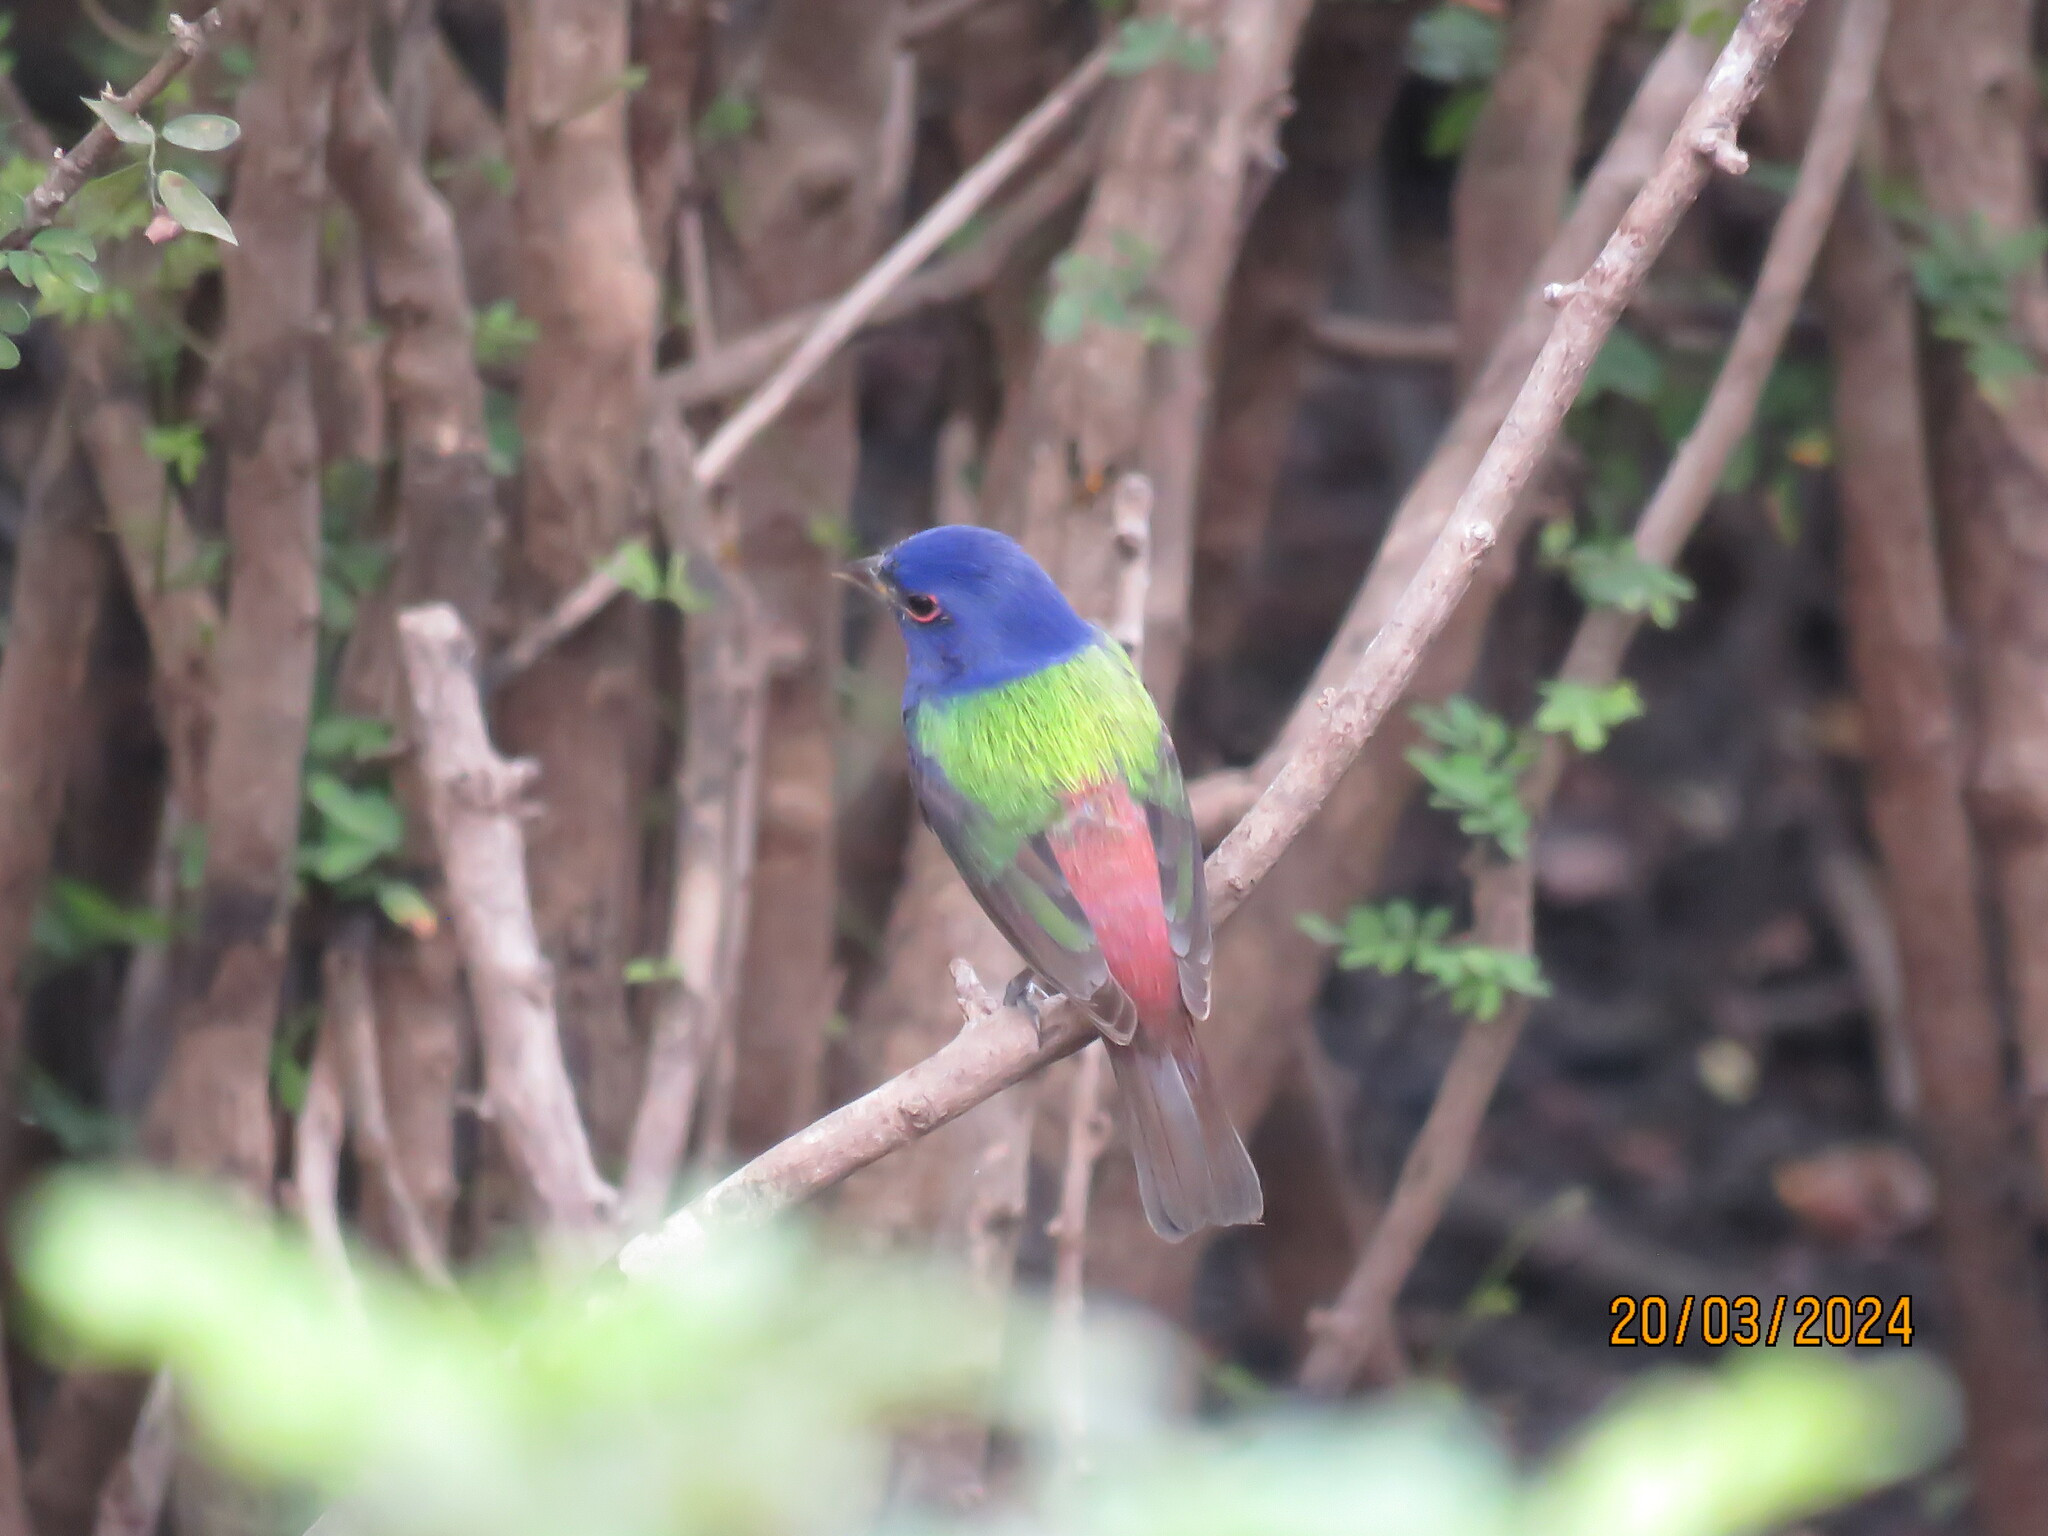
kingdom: Animalia
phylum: Chordata
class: Aves
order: Passeriformes
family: Cardinalidae
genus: Passerina
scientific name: Passerina ciris
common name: Painted bunting
